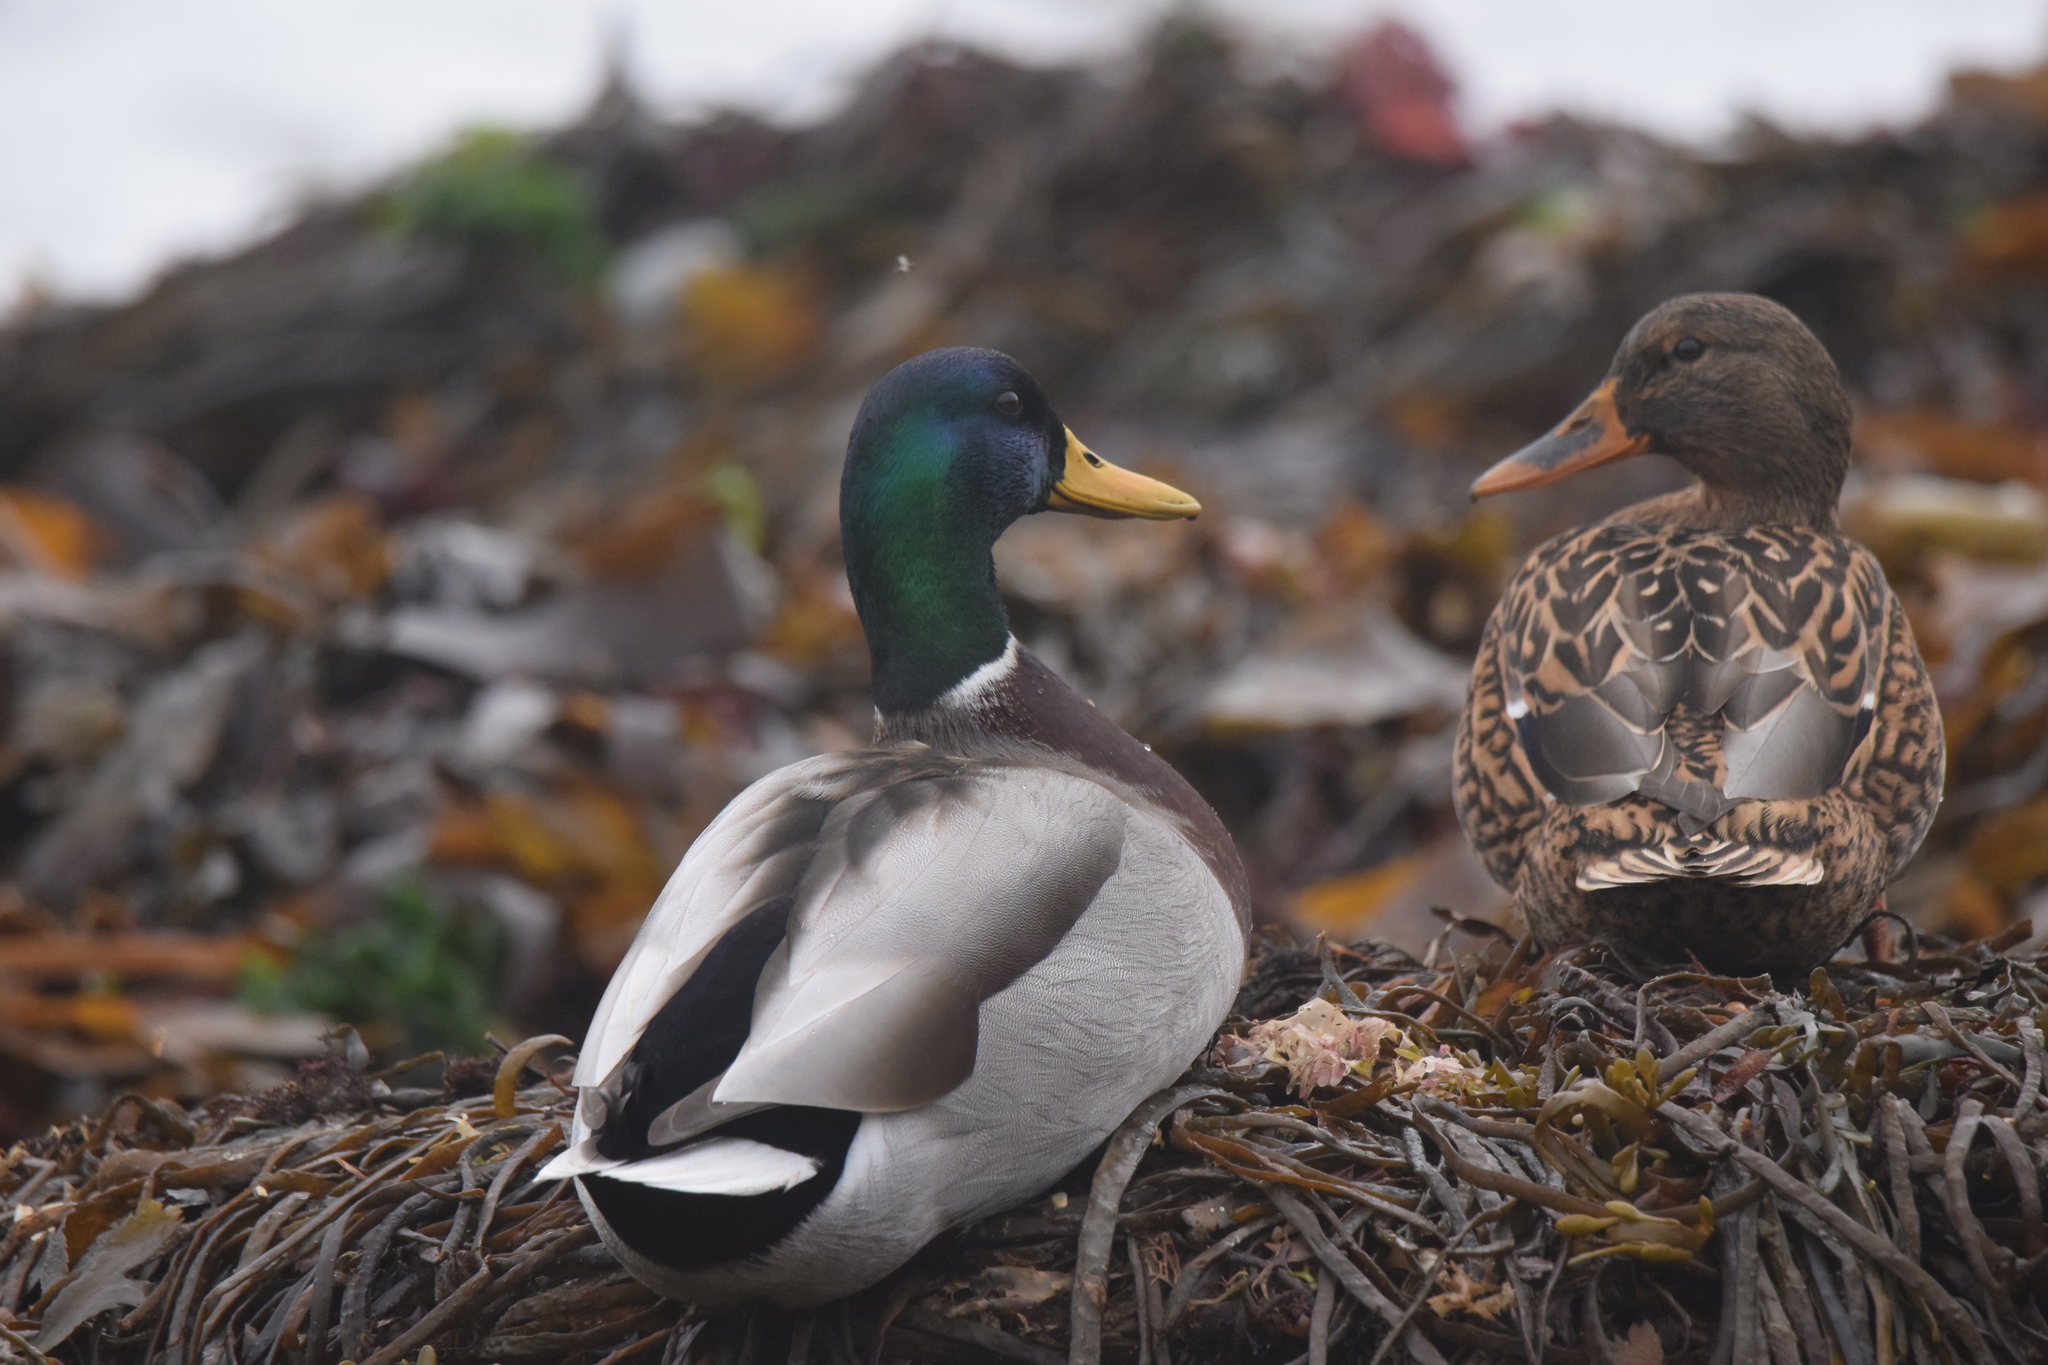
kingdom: Animalia
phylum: Chordata
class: Aves
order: Anseriformes
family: Anatidae
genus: Anas
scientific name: Anas platyrhynchos
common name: Mallard
